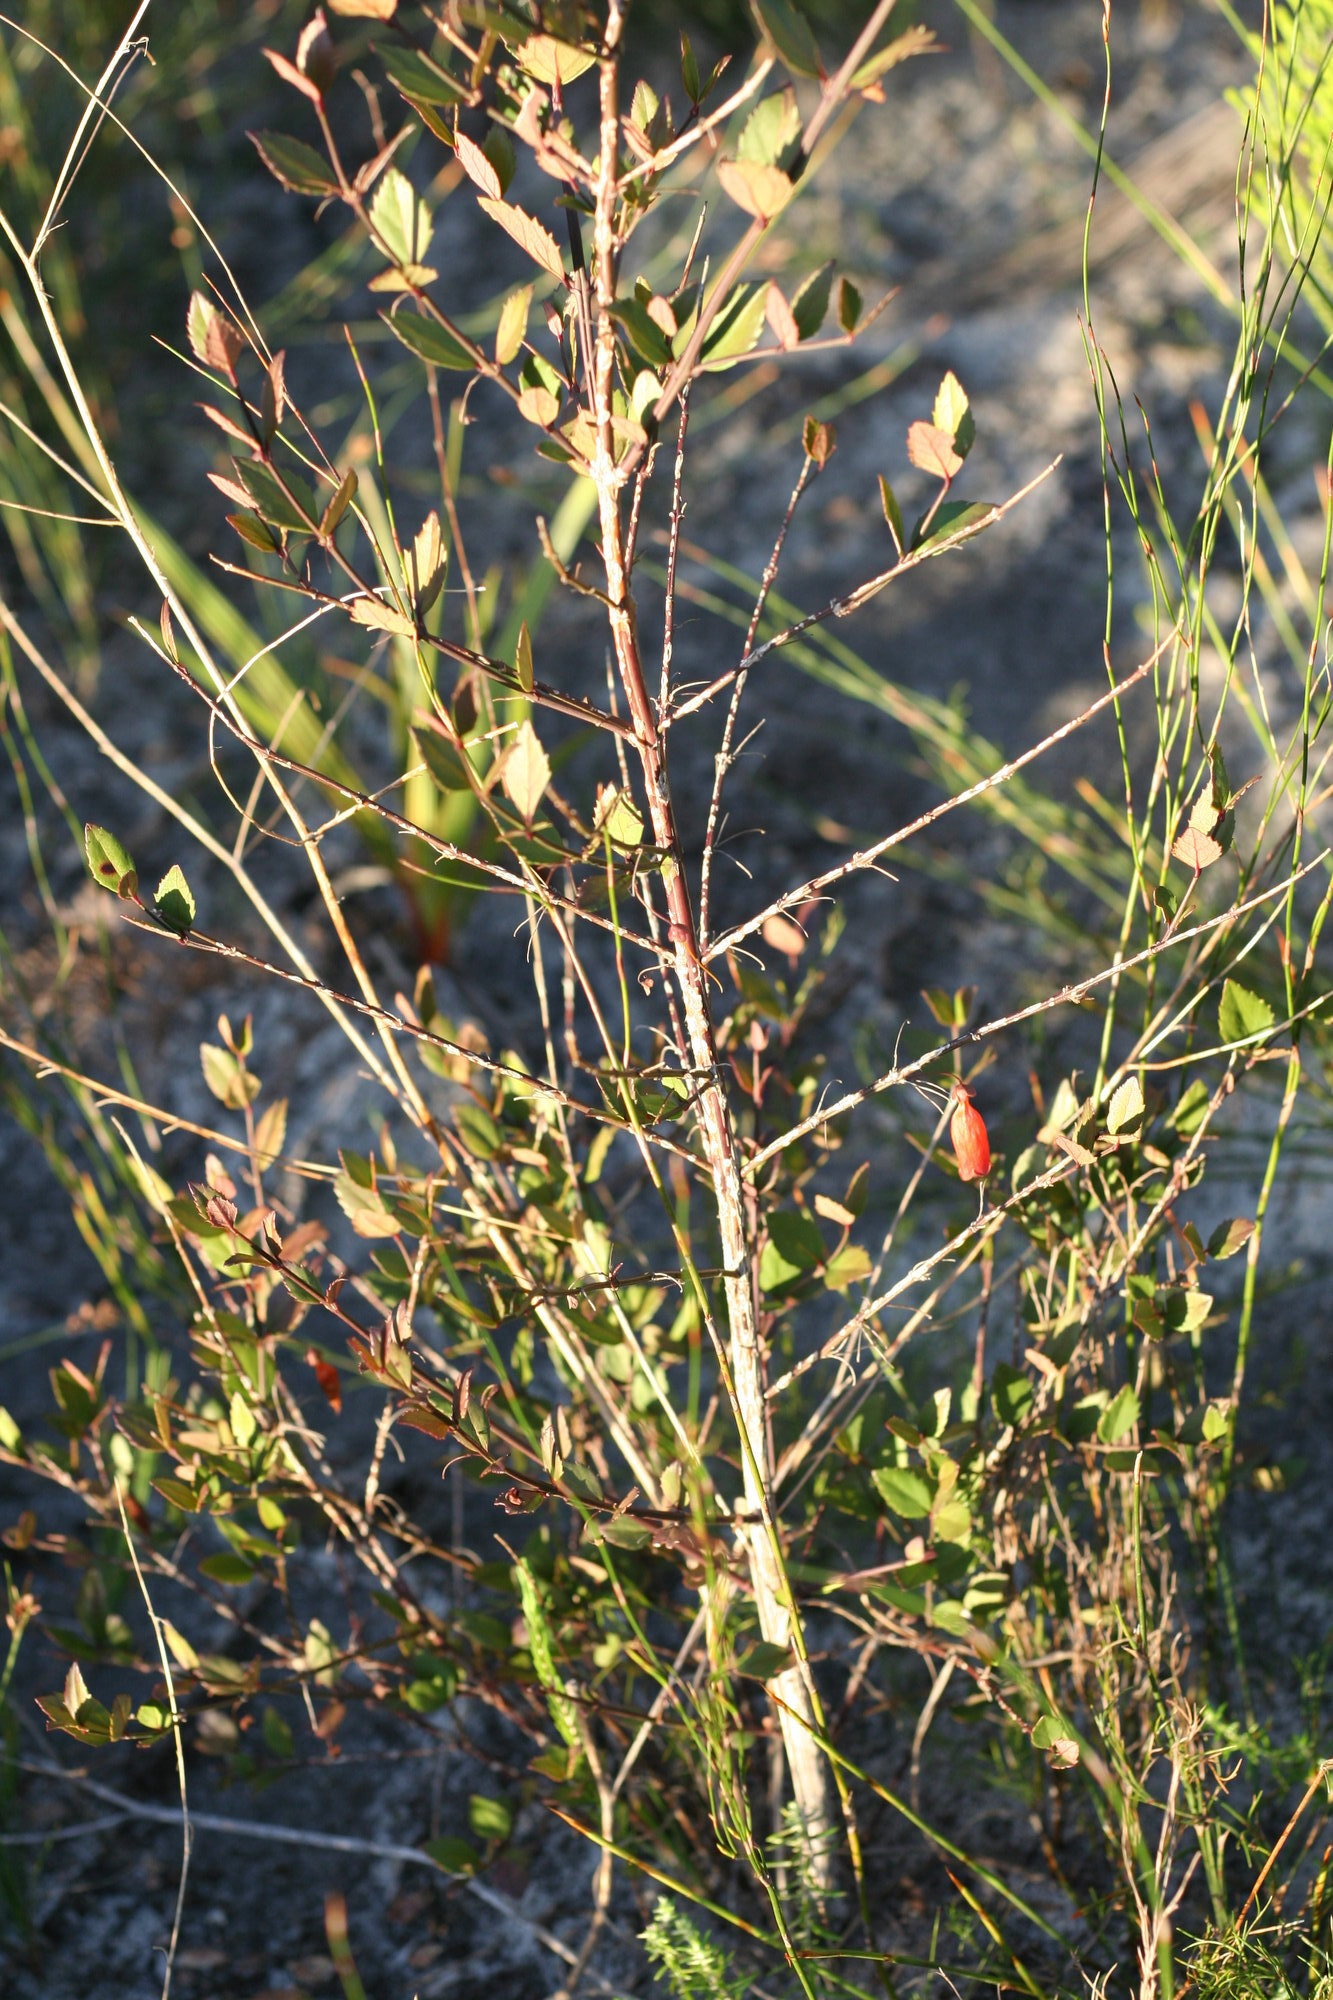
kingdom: Plantae
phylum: Tracheophyta
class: Magnoliopsida
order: Lamiales
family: Stilbaceae
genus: Halleria
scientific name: Halleria elliptica
